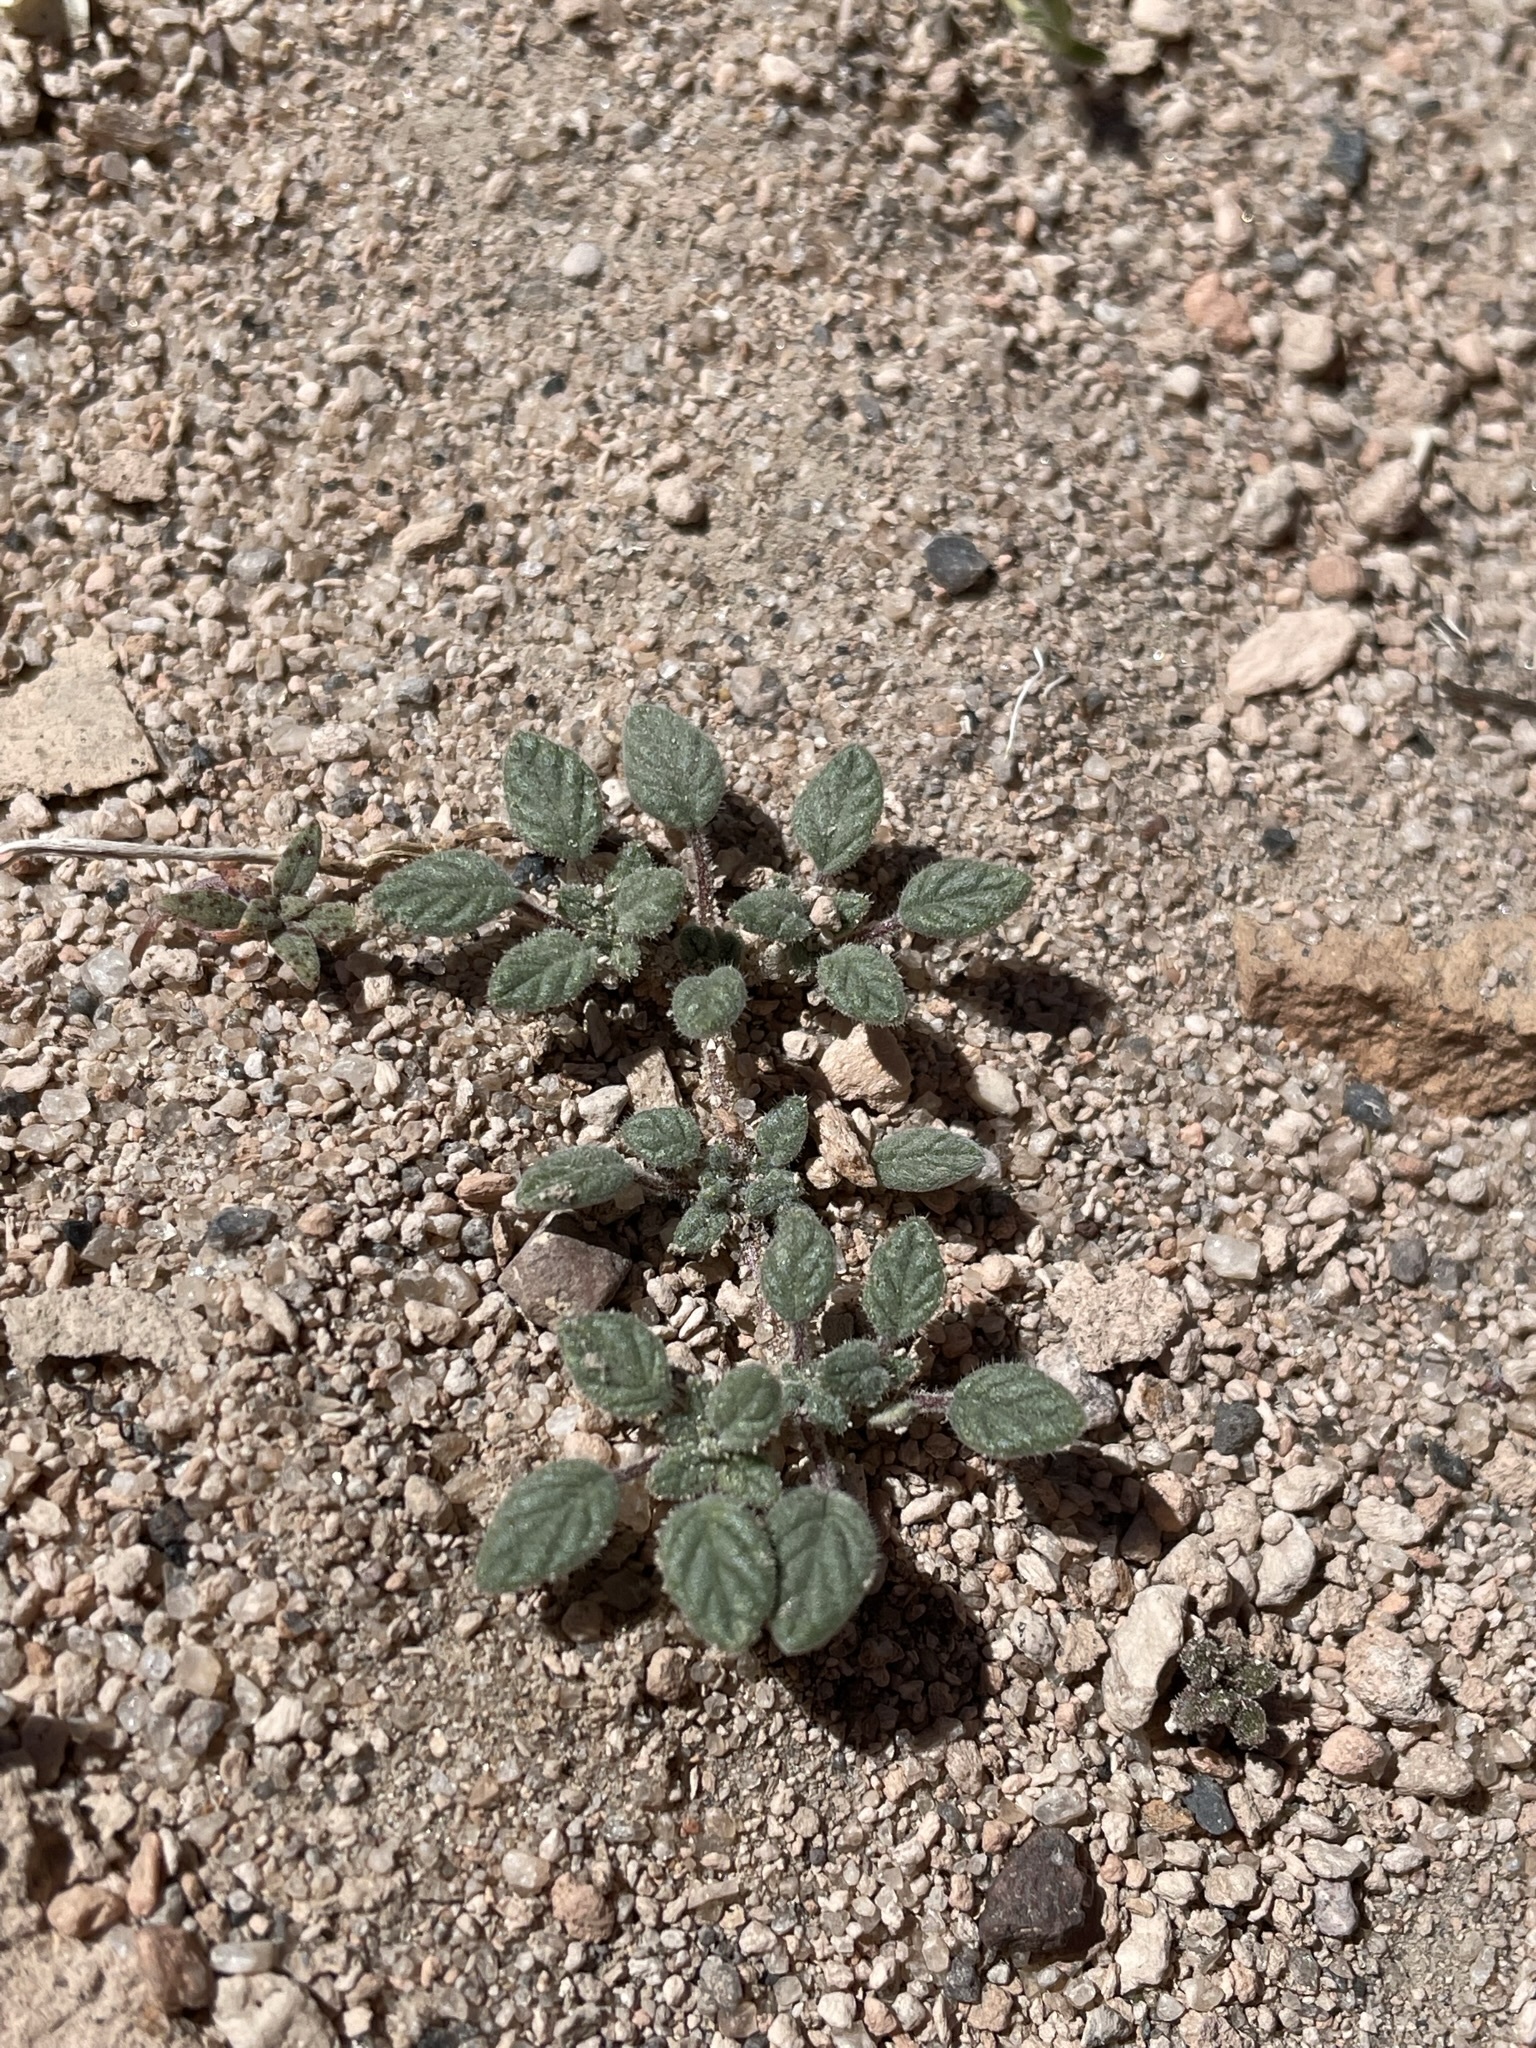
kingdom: Plantae
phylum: Tracheophyta
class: Magnoliopsida
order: Boraginales
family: Ehretiaceae
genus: Tiquilia
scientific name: Tiquilia nuttallii
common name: Rosette tiquilia
